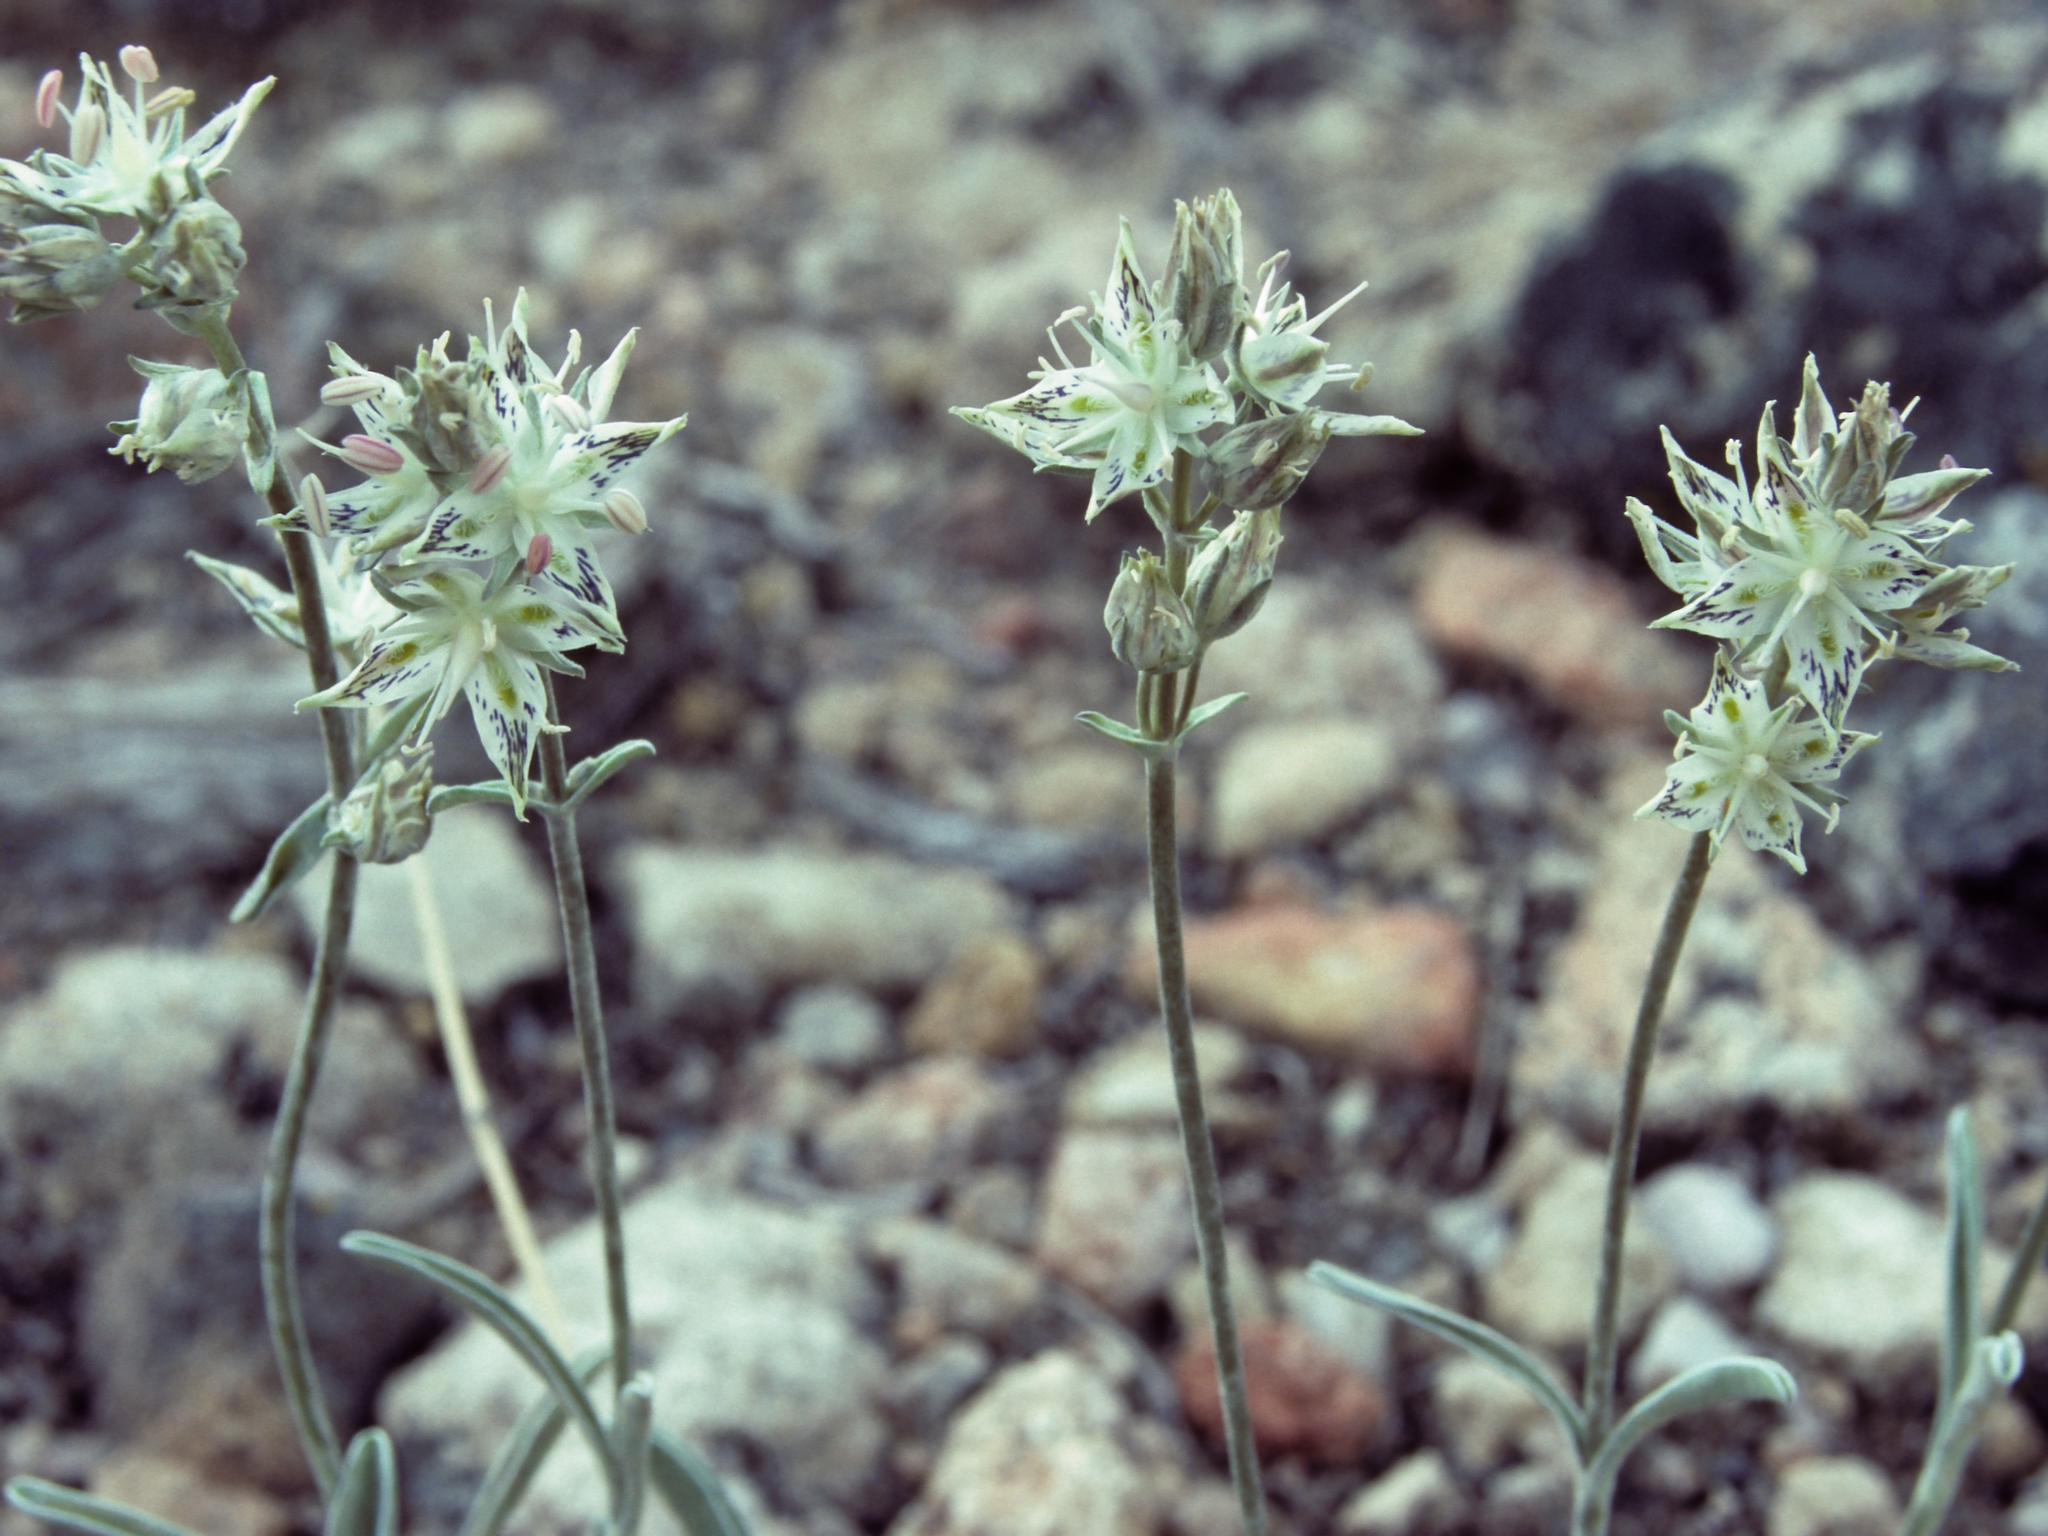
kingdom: Plantae
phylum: Tracheophyta
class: Magnoliopsida
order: Gentianales
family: Gentianaceae
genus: Frasera
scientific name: Frasera albicaulis
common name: Cusick's frasera
